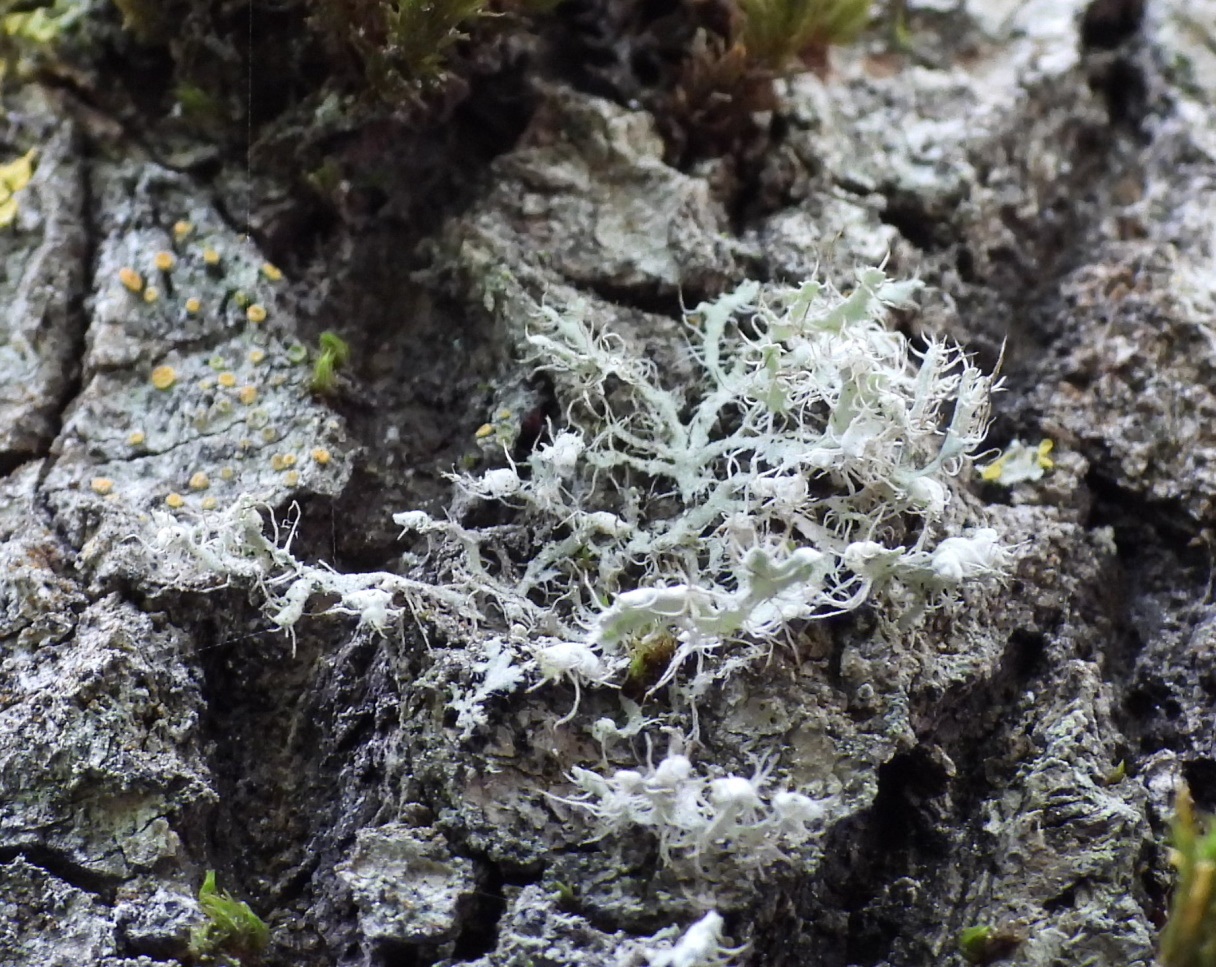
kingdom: Fungi
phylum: Ascomycota
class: Lecanoromycetes
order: Caliciales
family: Physciaceae
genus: Physcia
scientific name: Physcia adscendens
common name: Hooded rosette lichen
